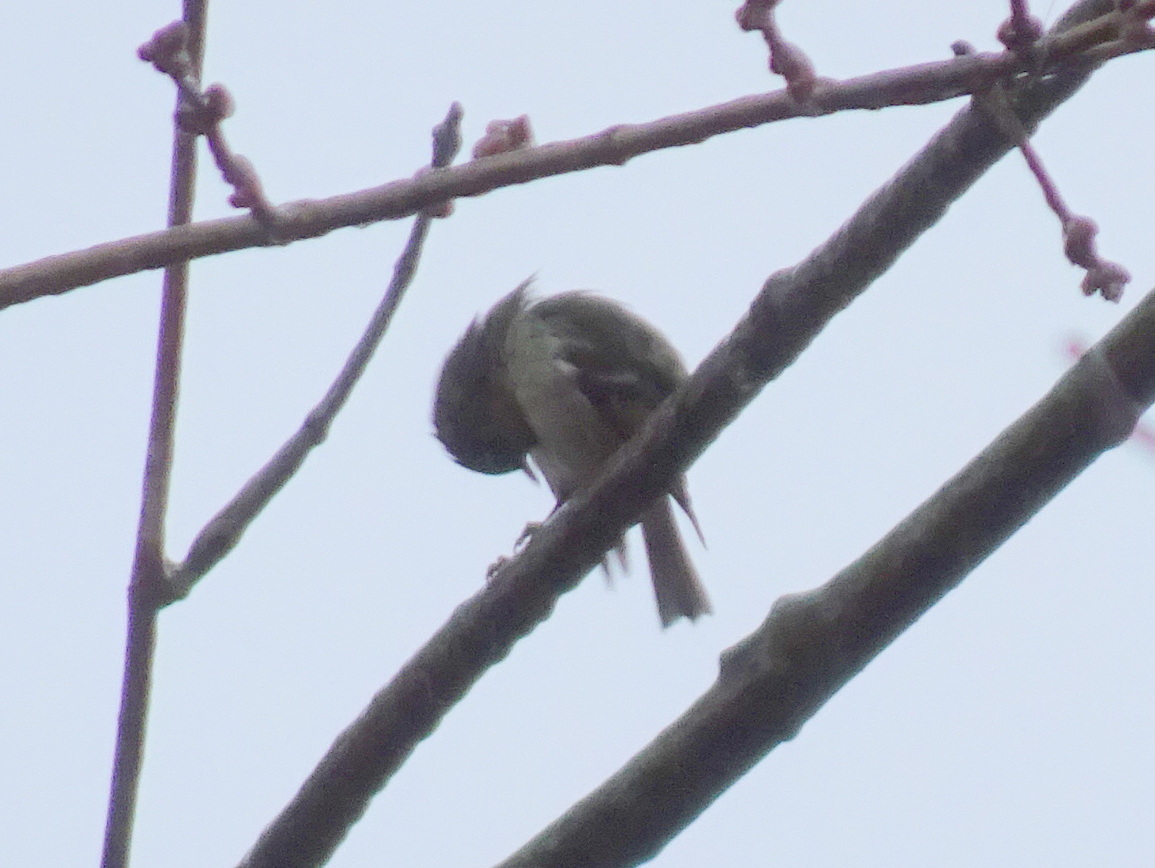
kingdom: Animalia
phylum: Chordata
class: Aves
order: Passeriformes
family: Regulidae
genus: Regulus
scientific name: Regulus calendula
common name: Ruby-crowned kinglet
